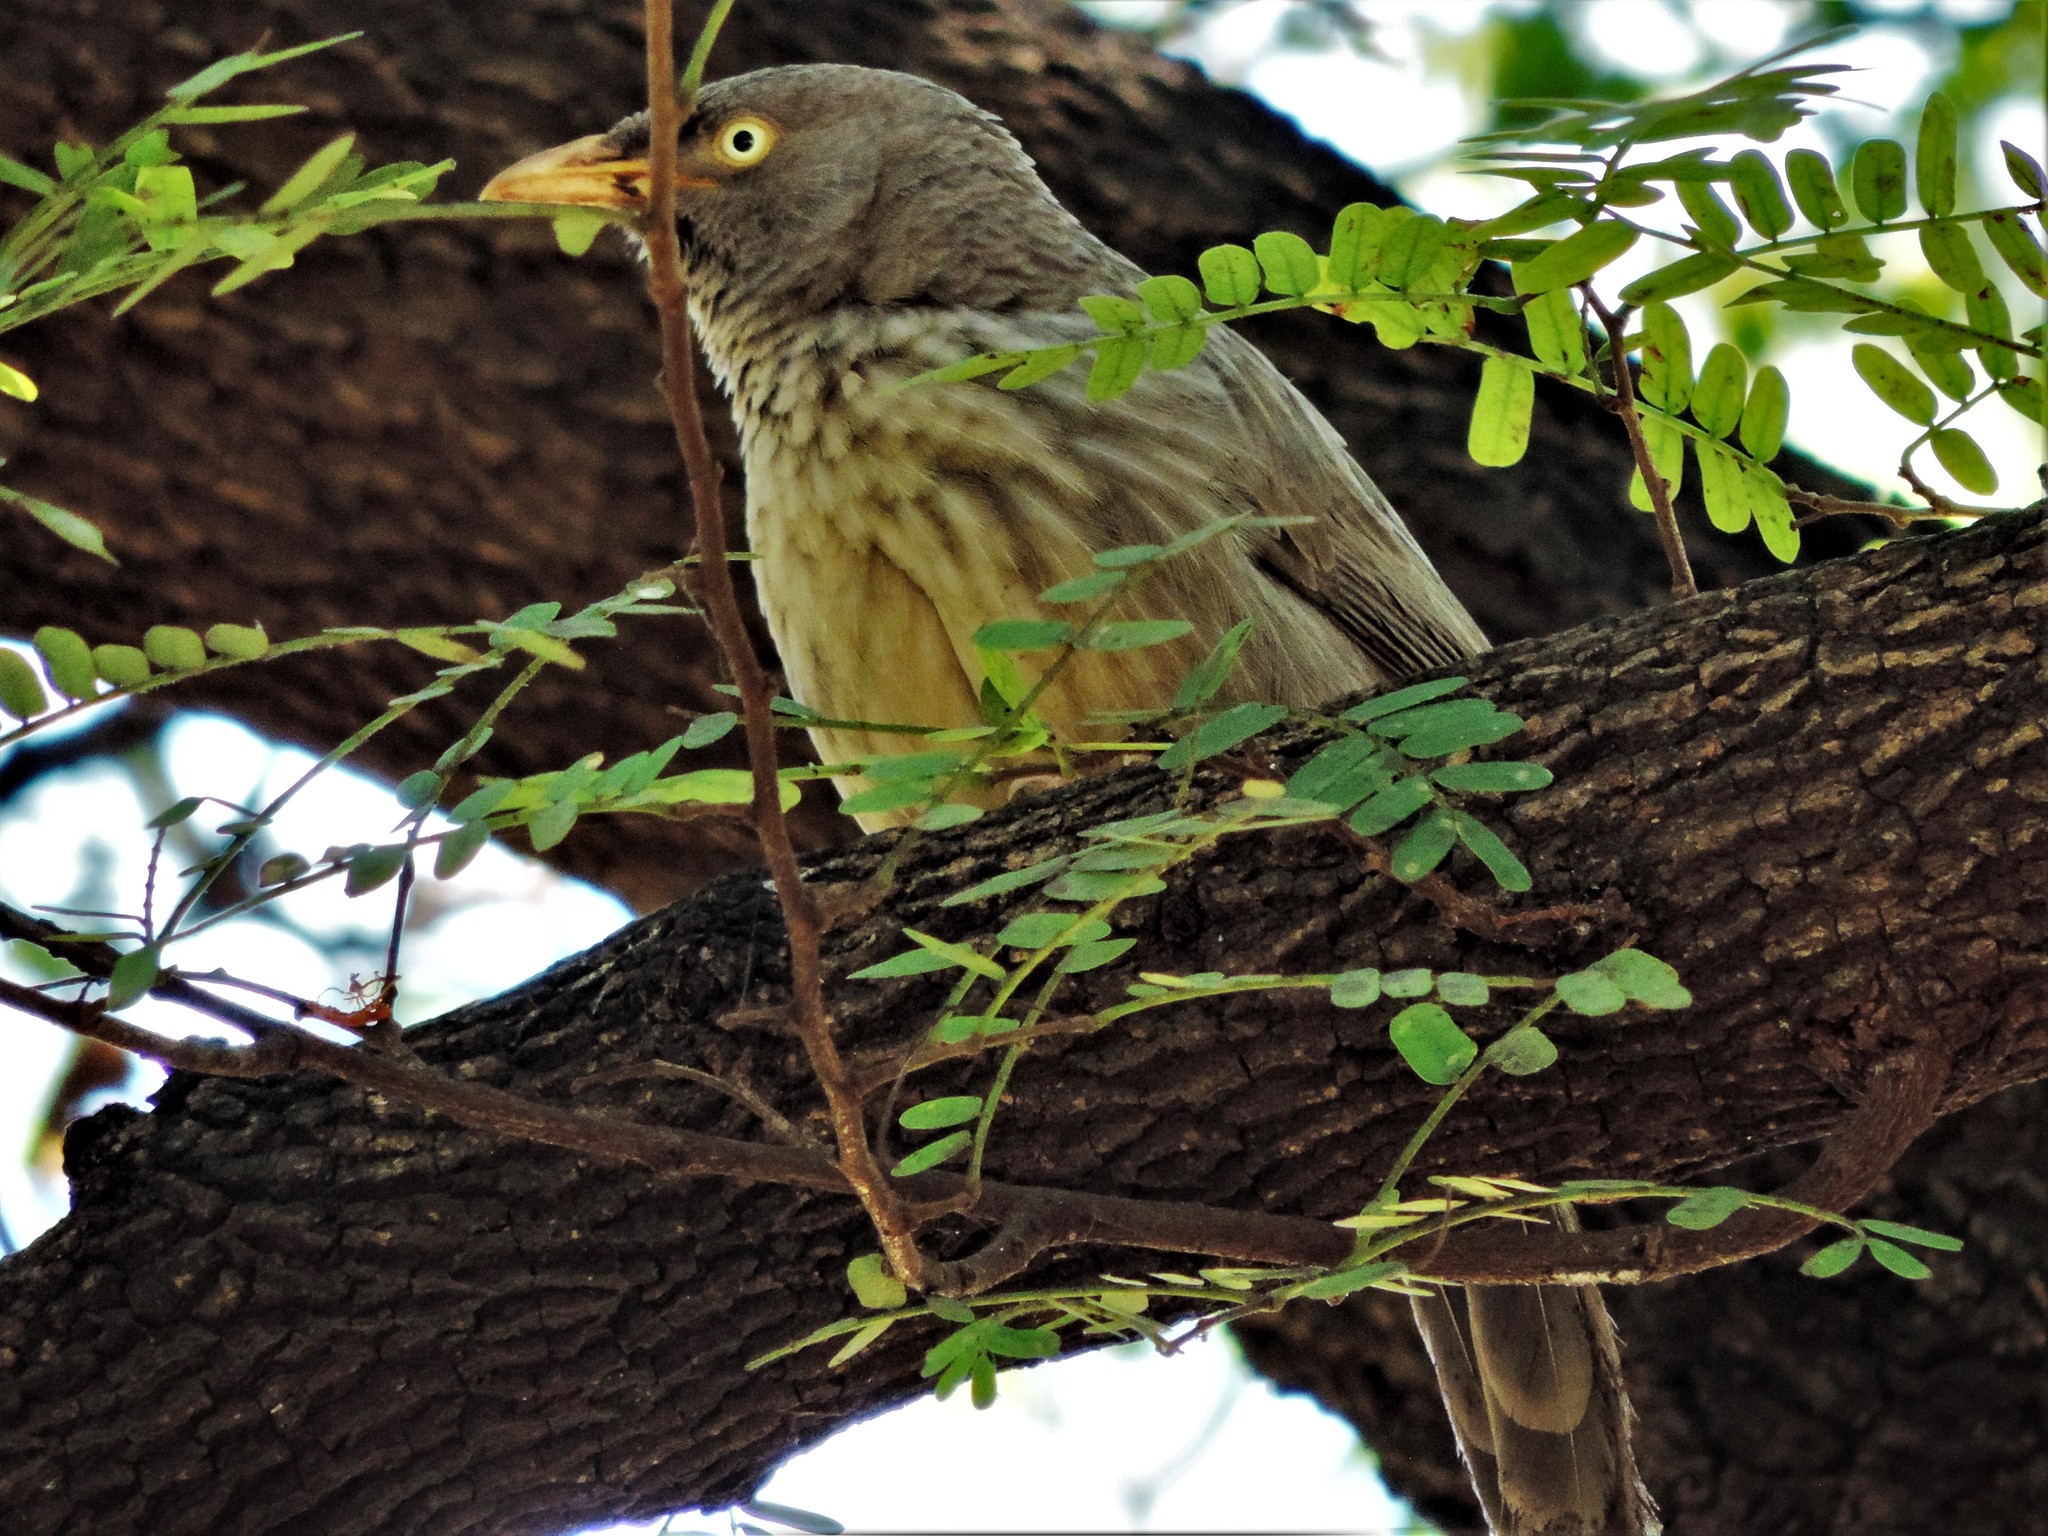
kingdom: Animalia
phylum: Chordata
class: Aves
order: Passeriformes
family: Leiothrichidae
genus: Turdoides
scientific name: Turdoides striata
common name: Jungle babbler
